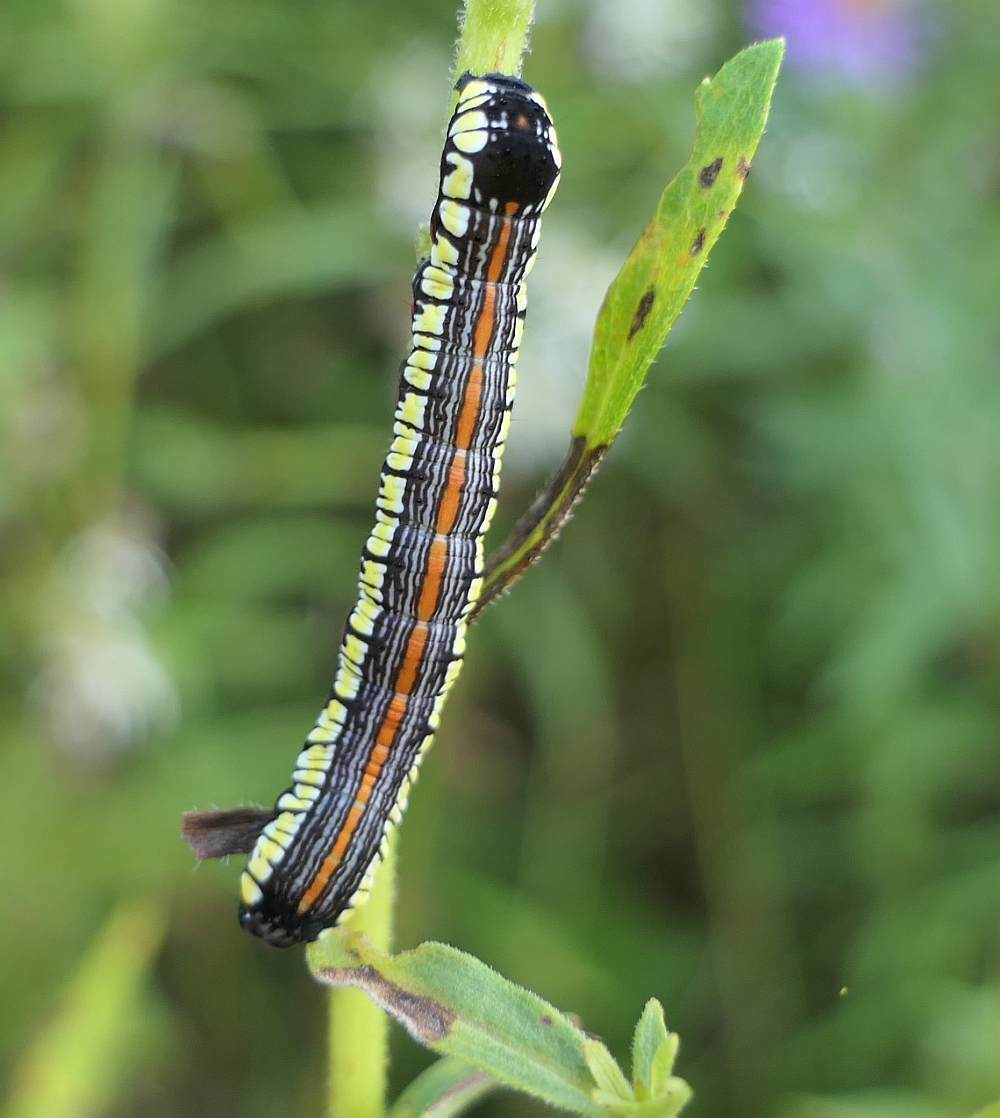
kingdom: Animalia
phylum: Arthropoda
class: Insecta
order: Lepidoptera
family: Noctuidae
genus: Cucullia
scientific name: Cucullia convexipennis
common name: Brown-hooded owlet
